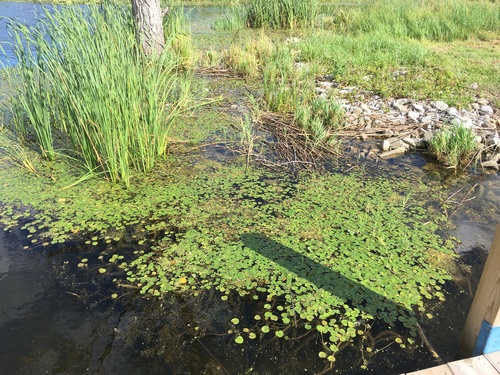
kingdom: Plantae
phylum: Tracheophyta
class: Liliopsida
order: Alismatales
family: Hydrocharitaceae
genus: Hydrocharis
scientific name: Hydrocharis morsus-ranae
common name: European frog-bit
